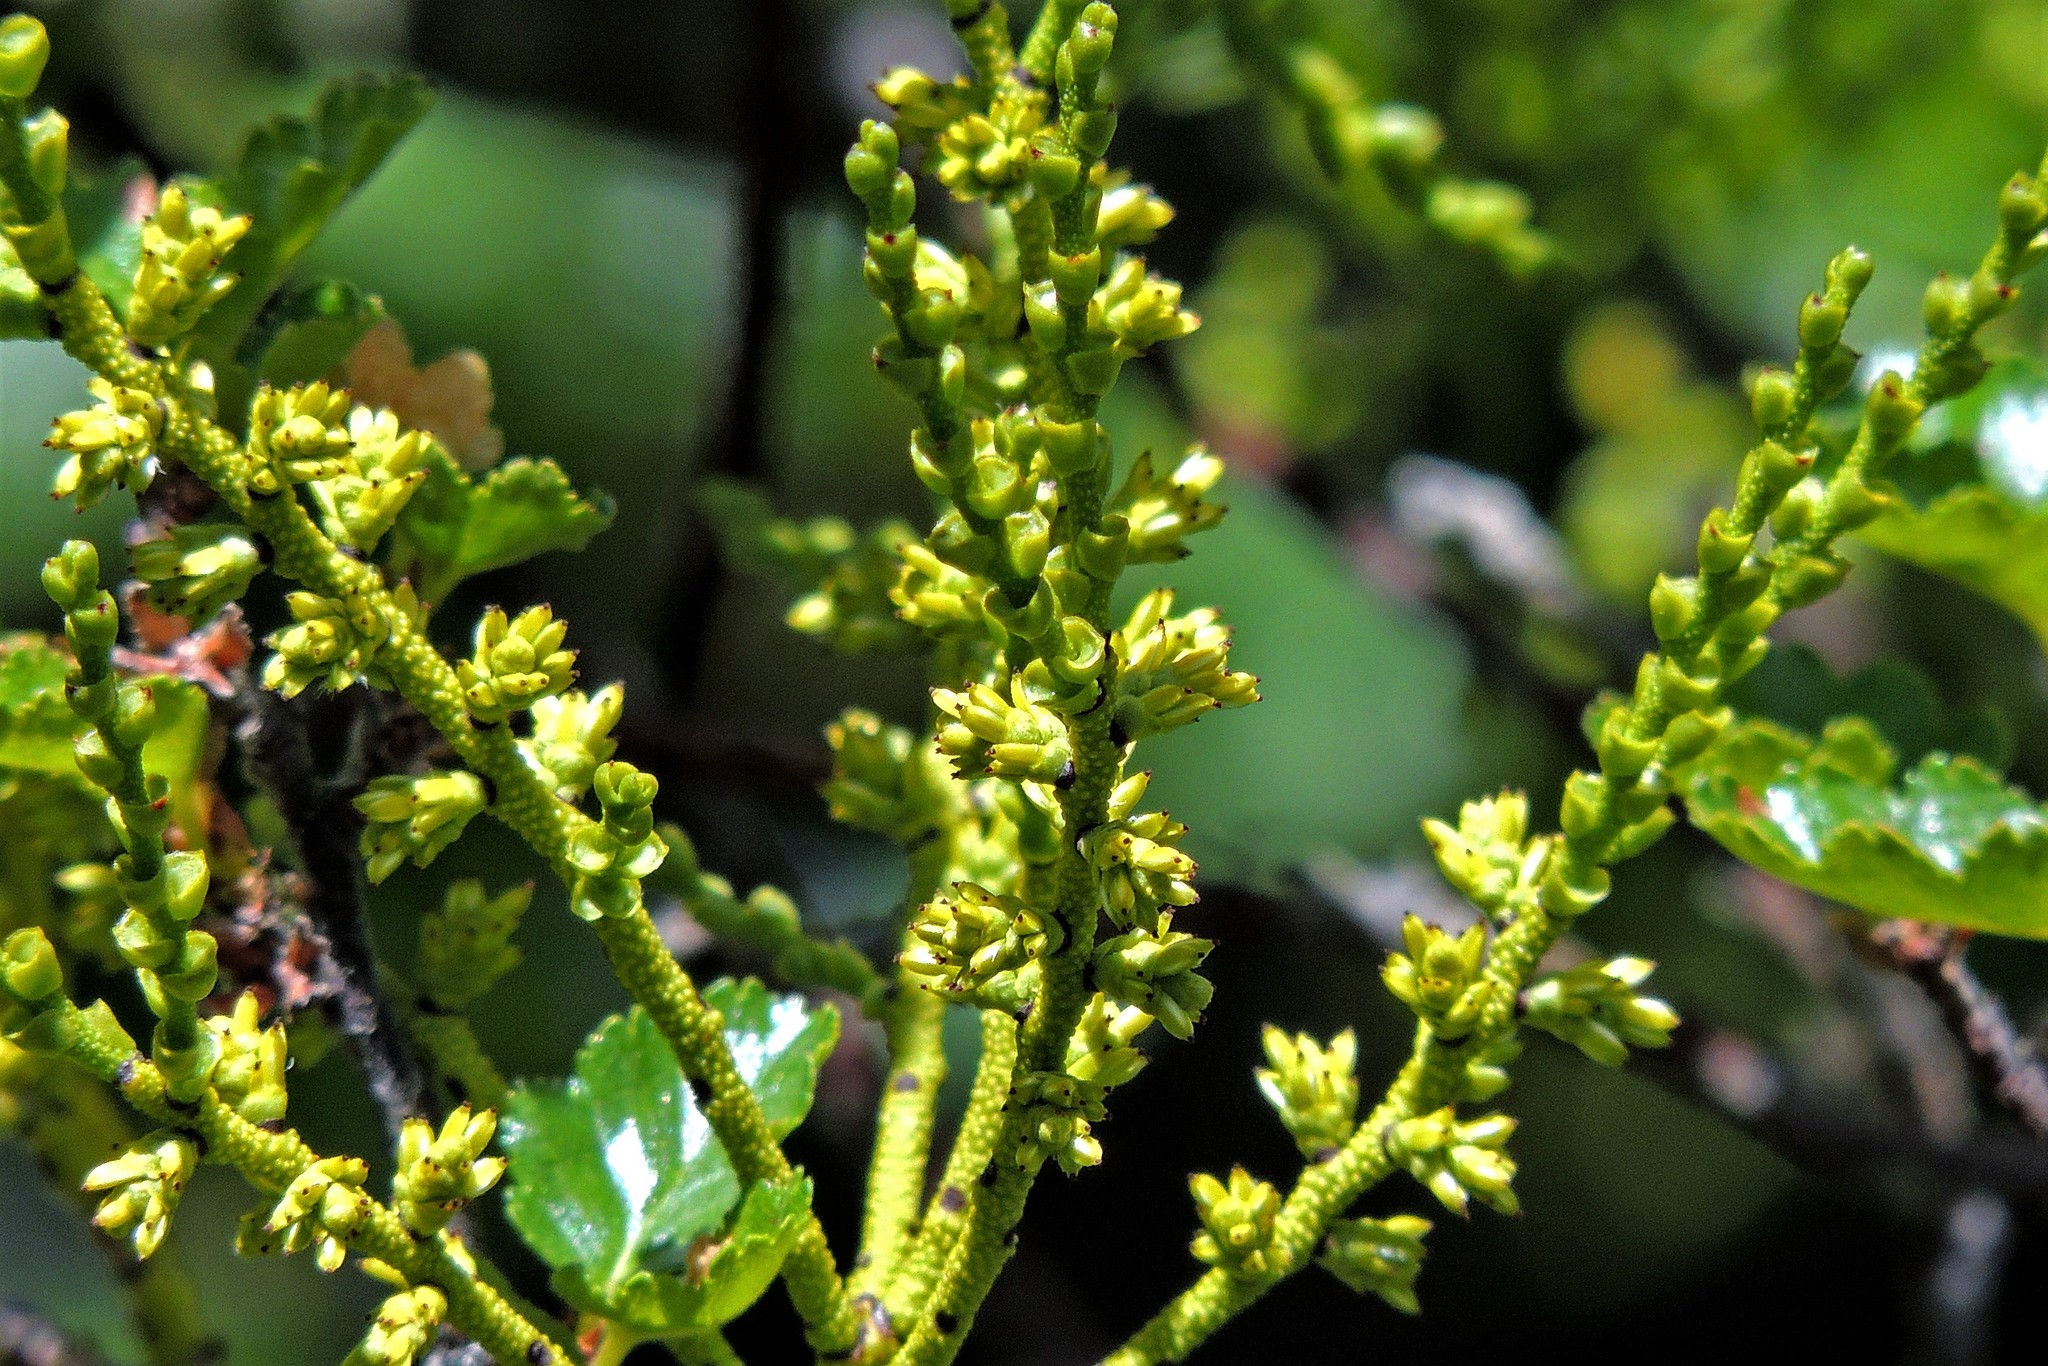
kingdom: Plantae
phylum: Tracheophyta
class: Magnoliopsida
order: Fagales
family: Nothofagaceae
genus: Nothofagus
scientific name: Nothofagus antarctica
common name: Antarctic beech
